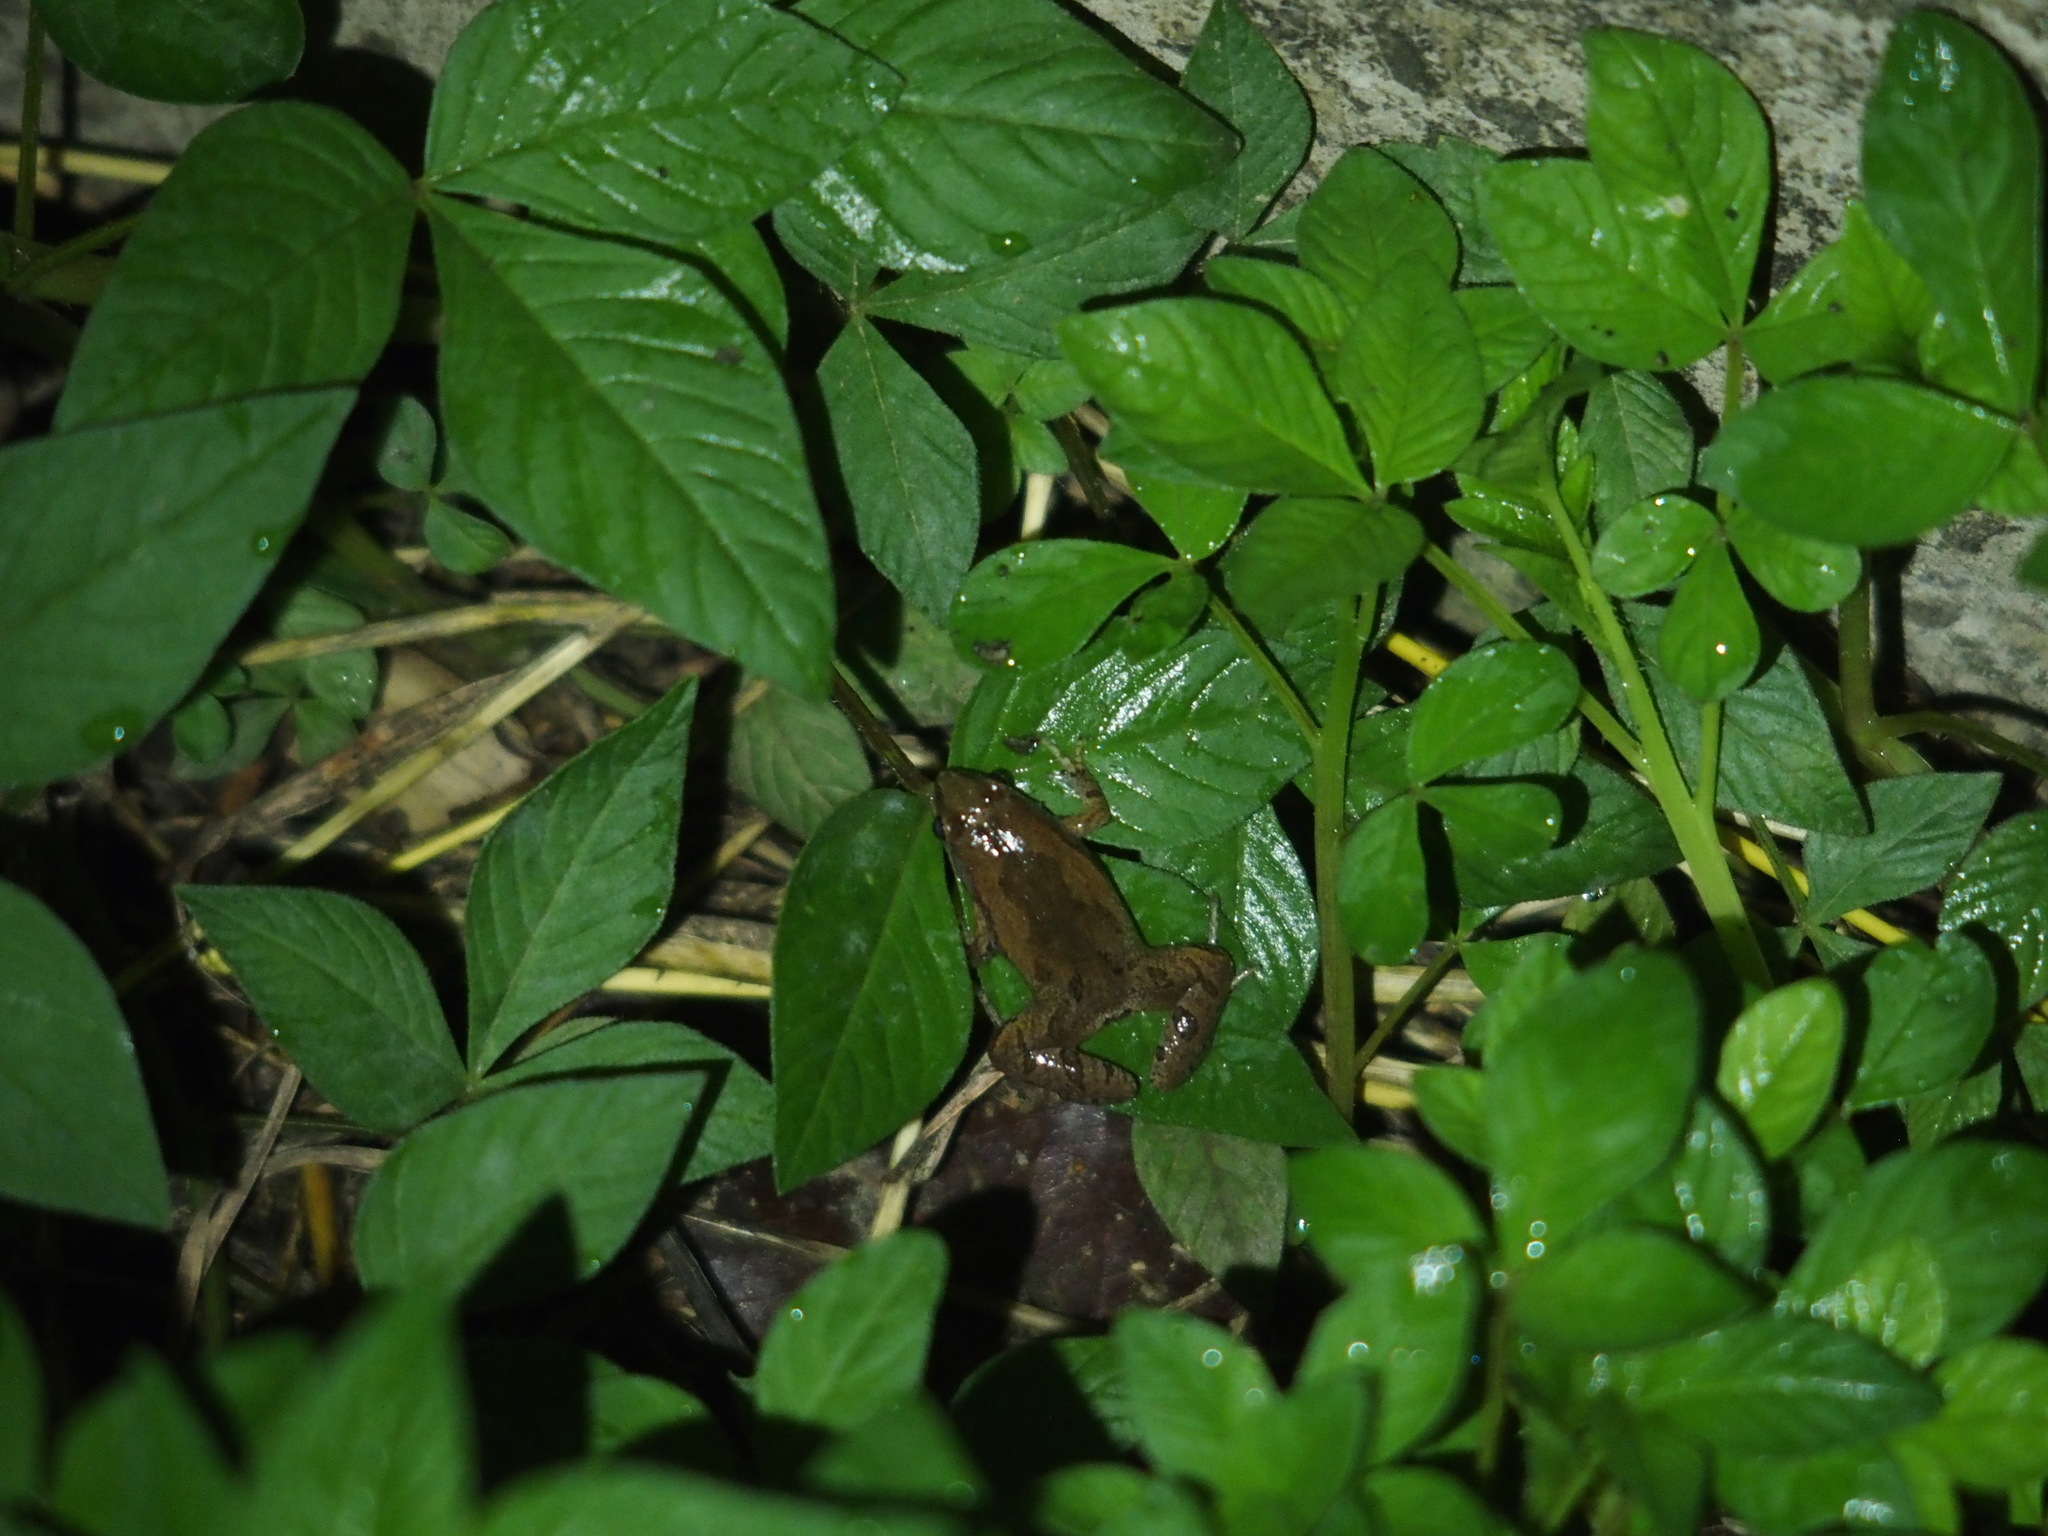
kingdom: Animalia
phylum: Chordata
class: Amphibia
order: Anura
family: Microhylidae
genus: Microhyla
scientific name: Microhyla fissipes
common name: Ornate narrow-mouthed frog
